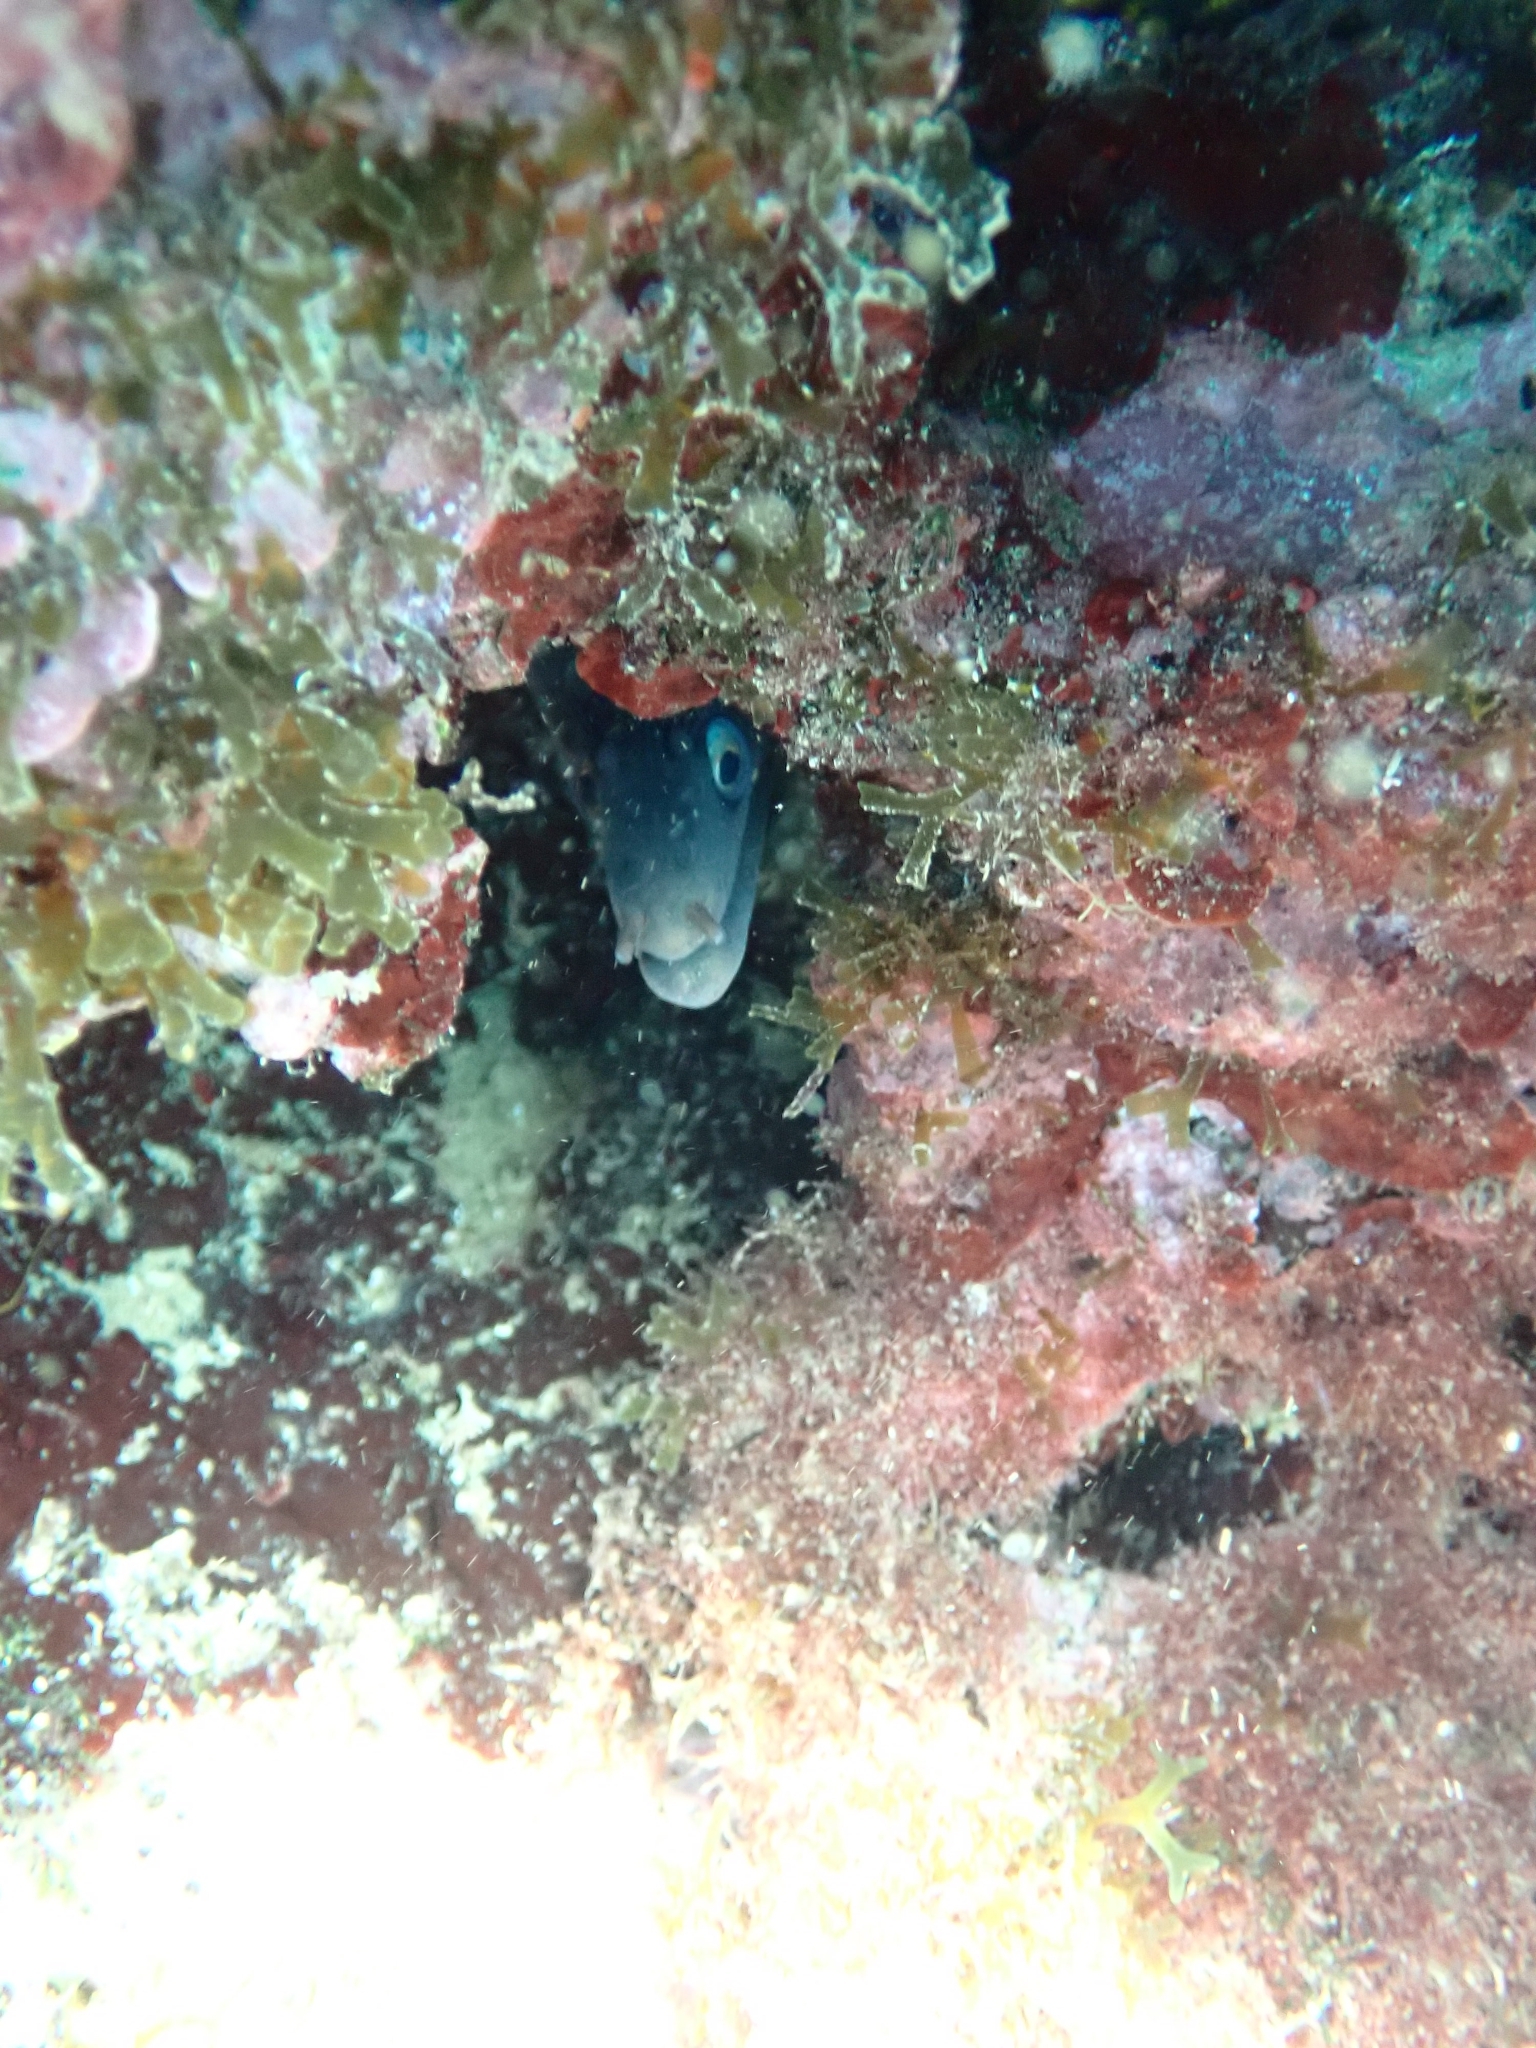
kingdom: Animalia
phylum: Chordata
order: Anguilliformes
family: Muraenidae
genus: Muraena
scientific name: Muraena helena
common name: Mediterranean moray
